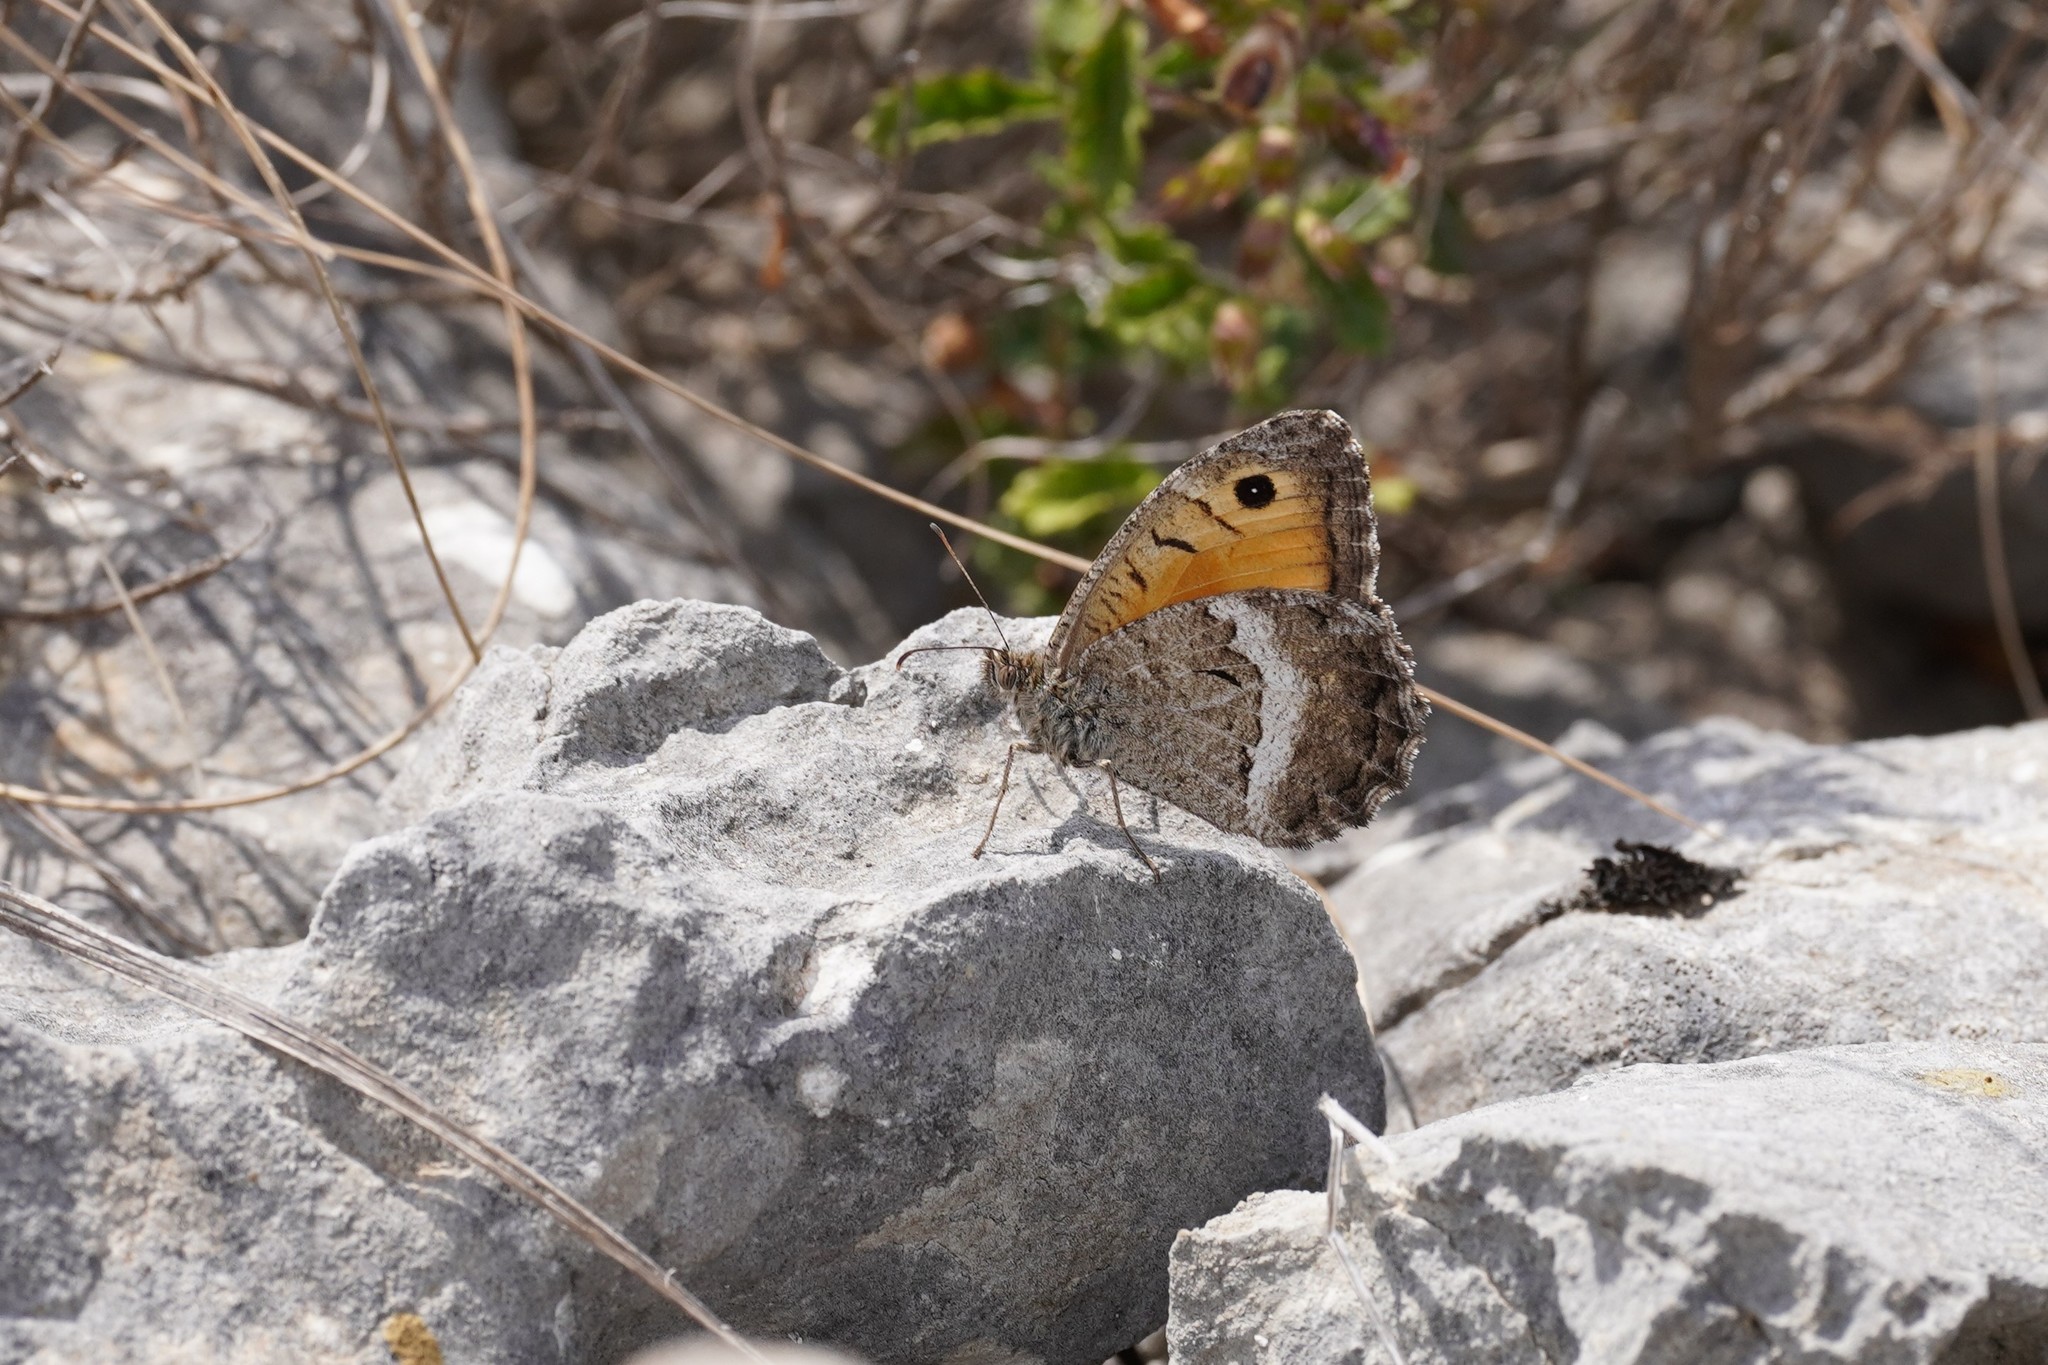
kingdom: Animalia
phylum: Arthropoda
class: Insecta
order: Lepidoptera
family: Nymphalidae
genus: Arethusana
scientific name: Arethusana arethusa
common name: False grayling
